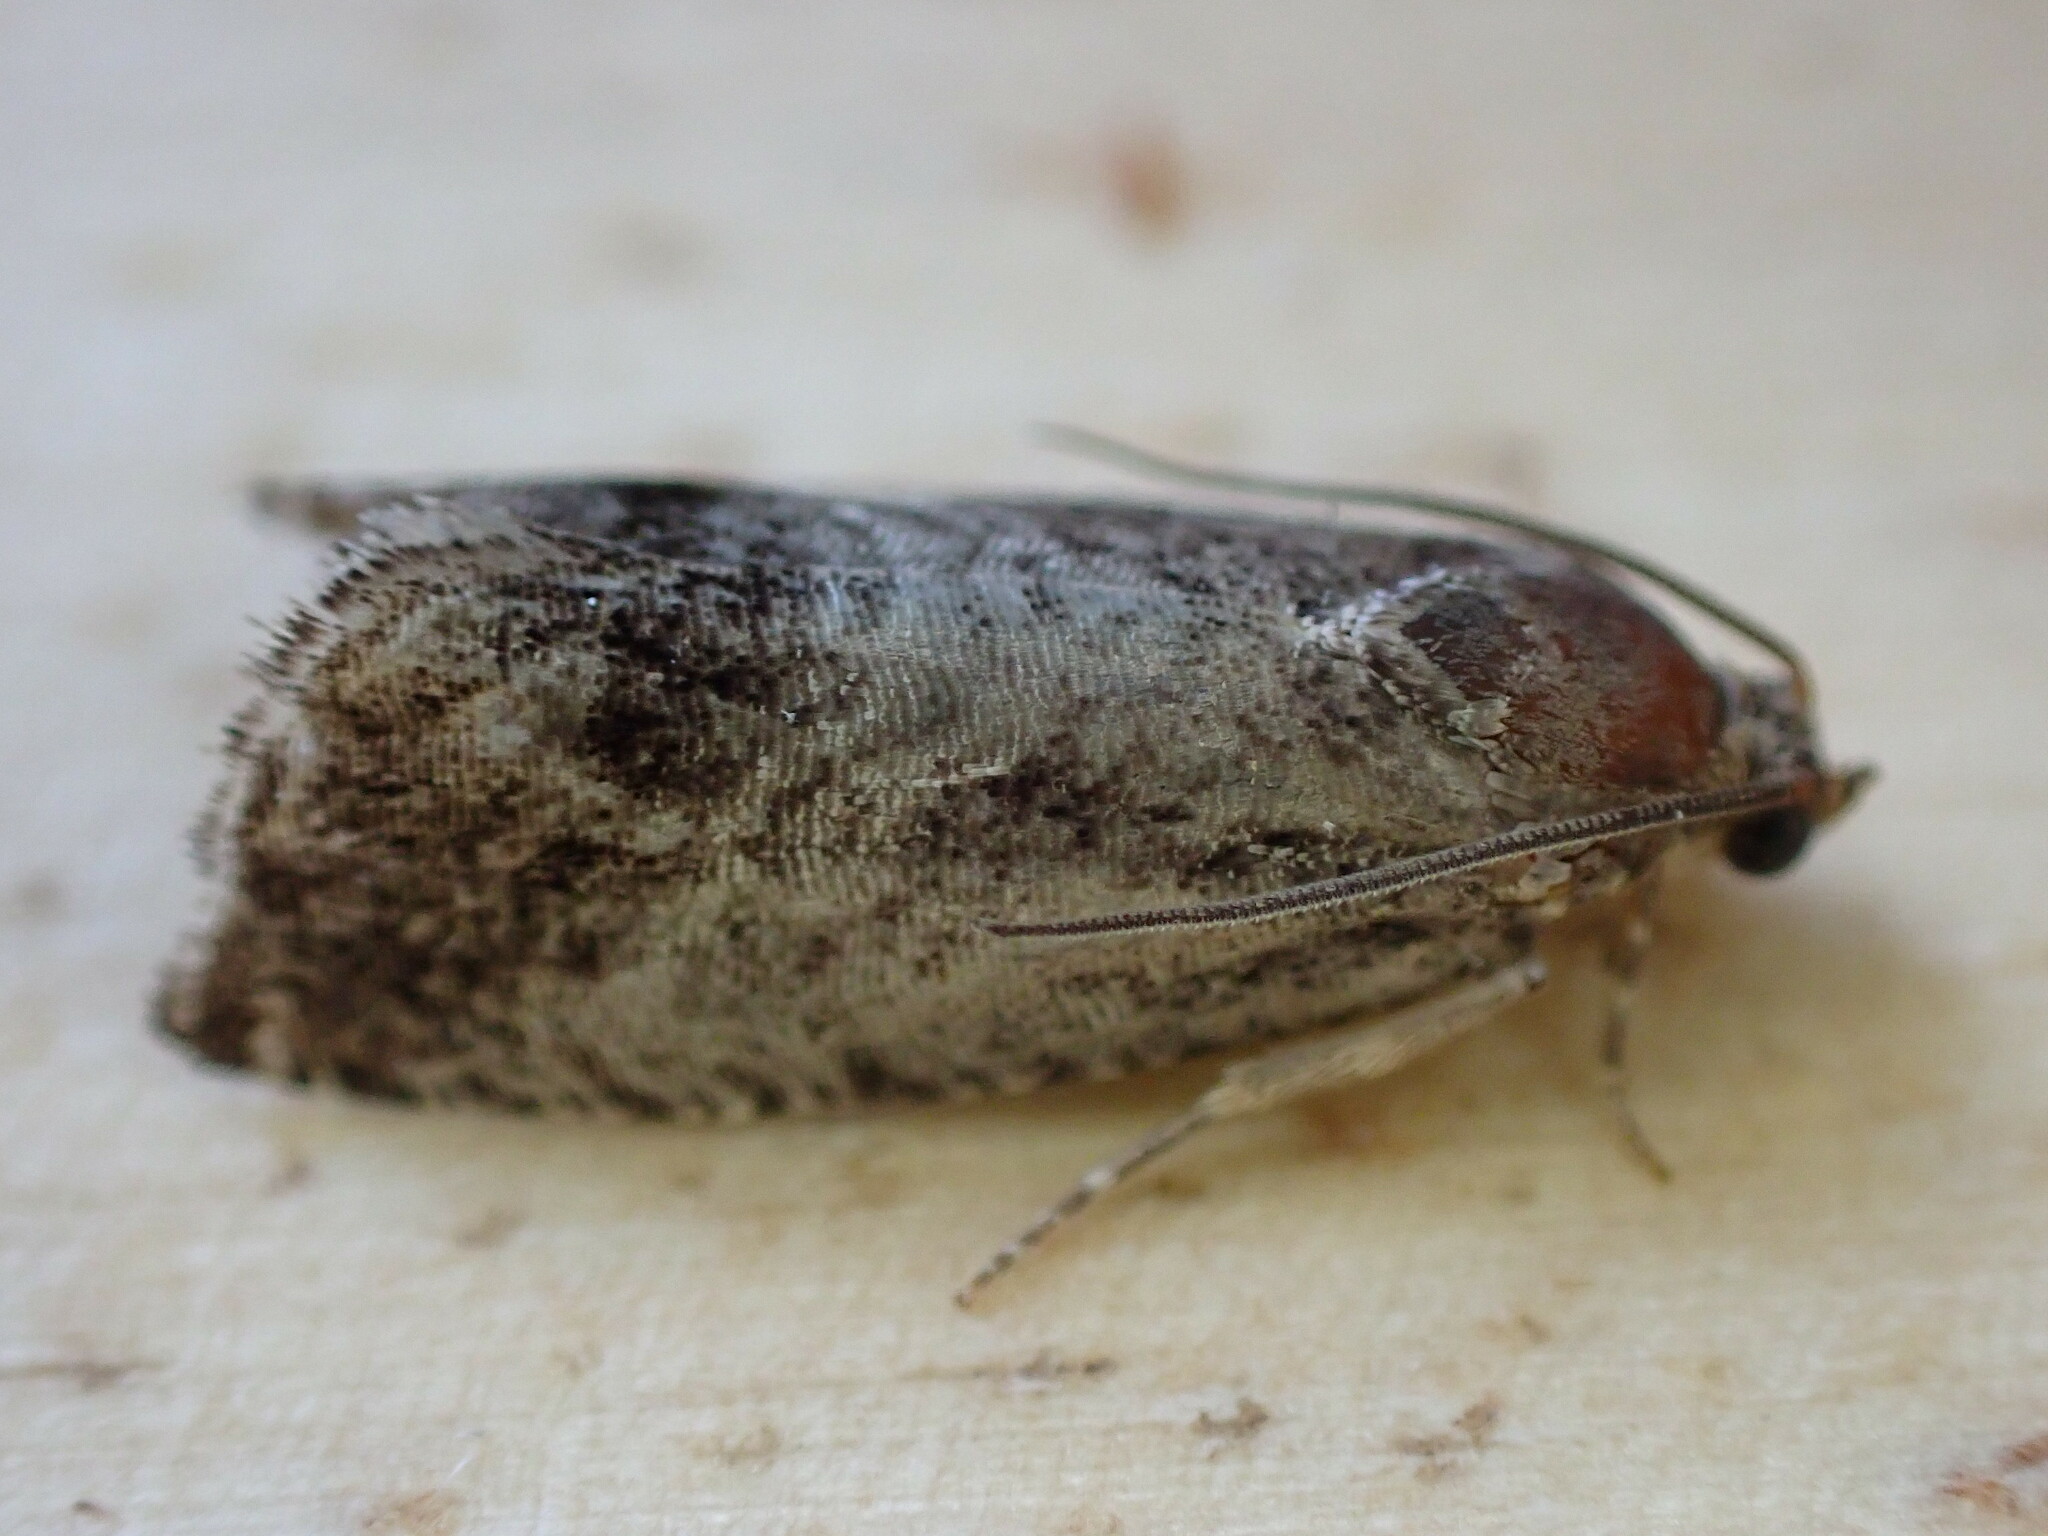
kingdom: Animalia
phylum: Arthropoda
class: Insecta
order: Lepidoptera
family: Tortricidae
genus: Cydia
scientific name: Cydia splendana
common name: De: kastanienwickler, eichenwickler es: oruga de la castaña fr: carpocapse des châtaignes it: cidia o tortrice tardiva delle castagne pt: bichado das castanhas gb: acorn moth, chestnut fruit tortrix
